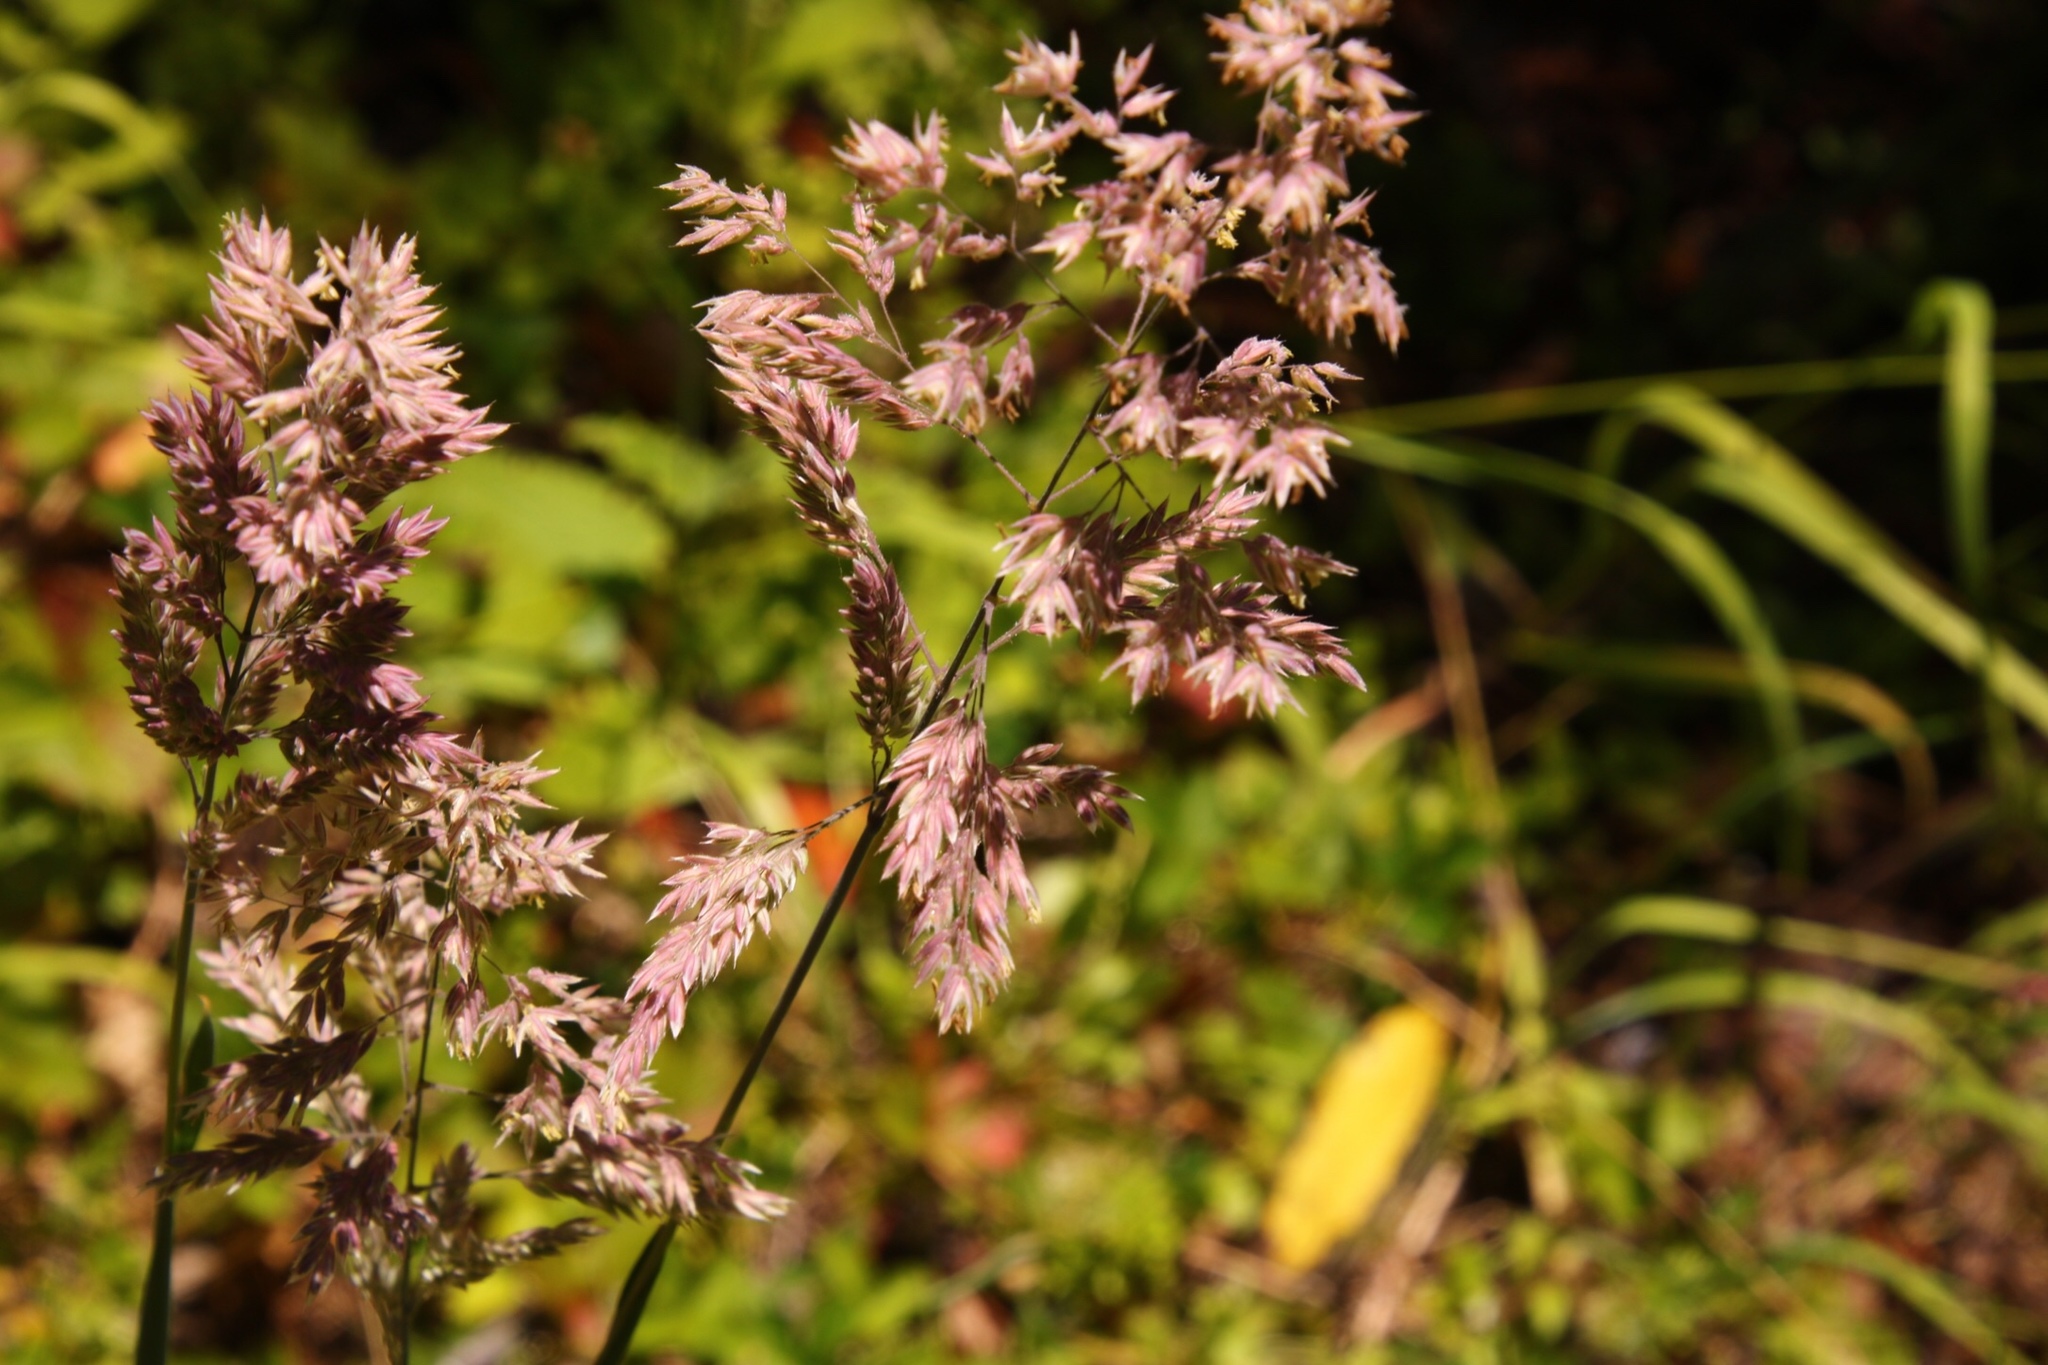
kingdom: Plantae
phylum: Tracheophyta
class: Liliopsida
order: Poales
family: Poaceae
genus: Holcus
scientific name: Holcus lanatus
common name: Yorkshire-fog
